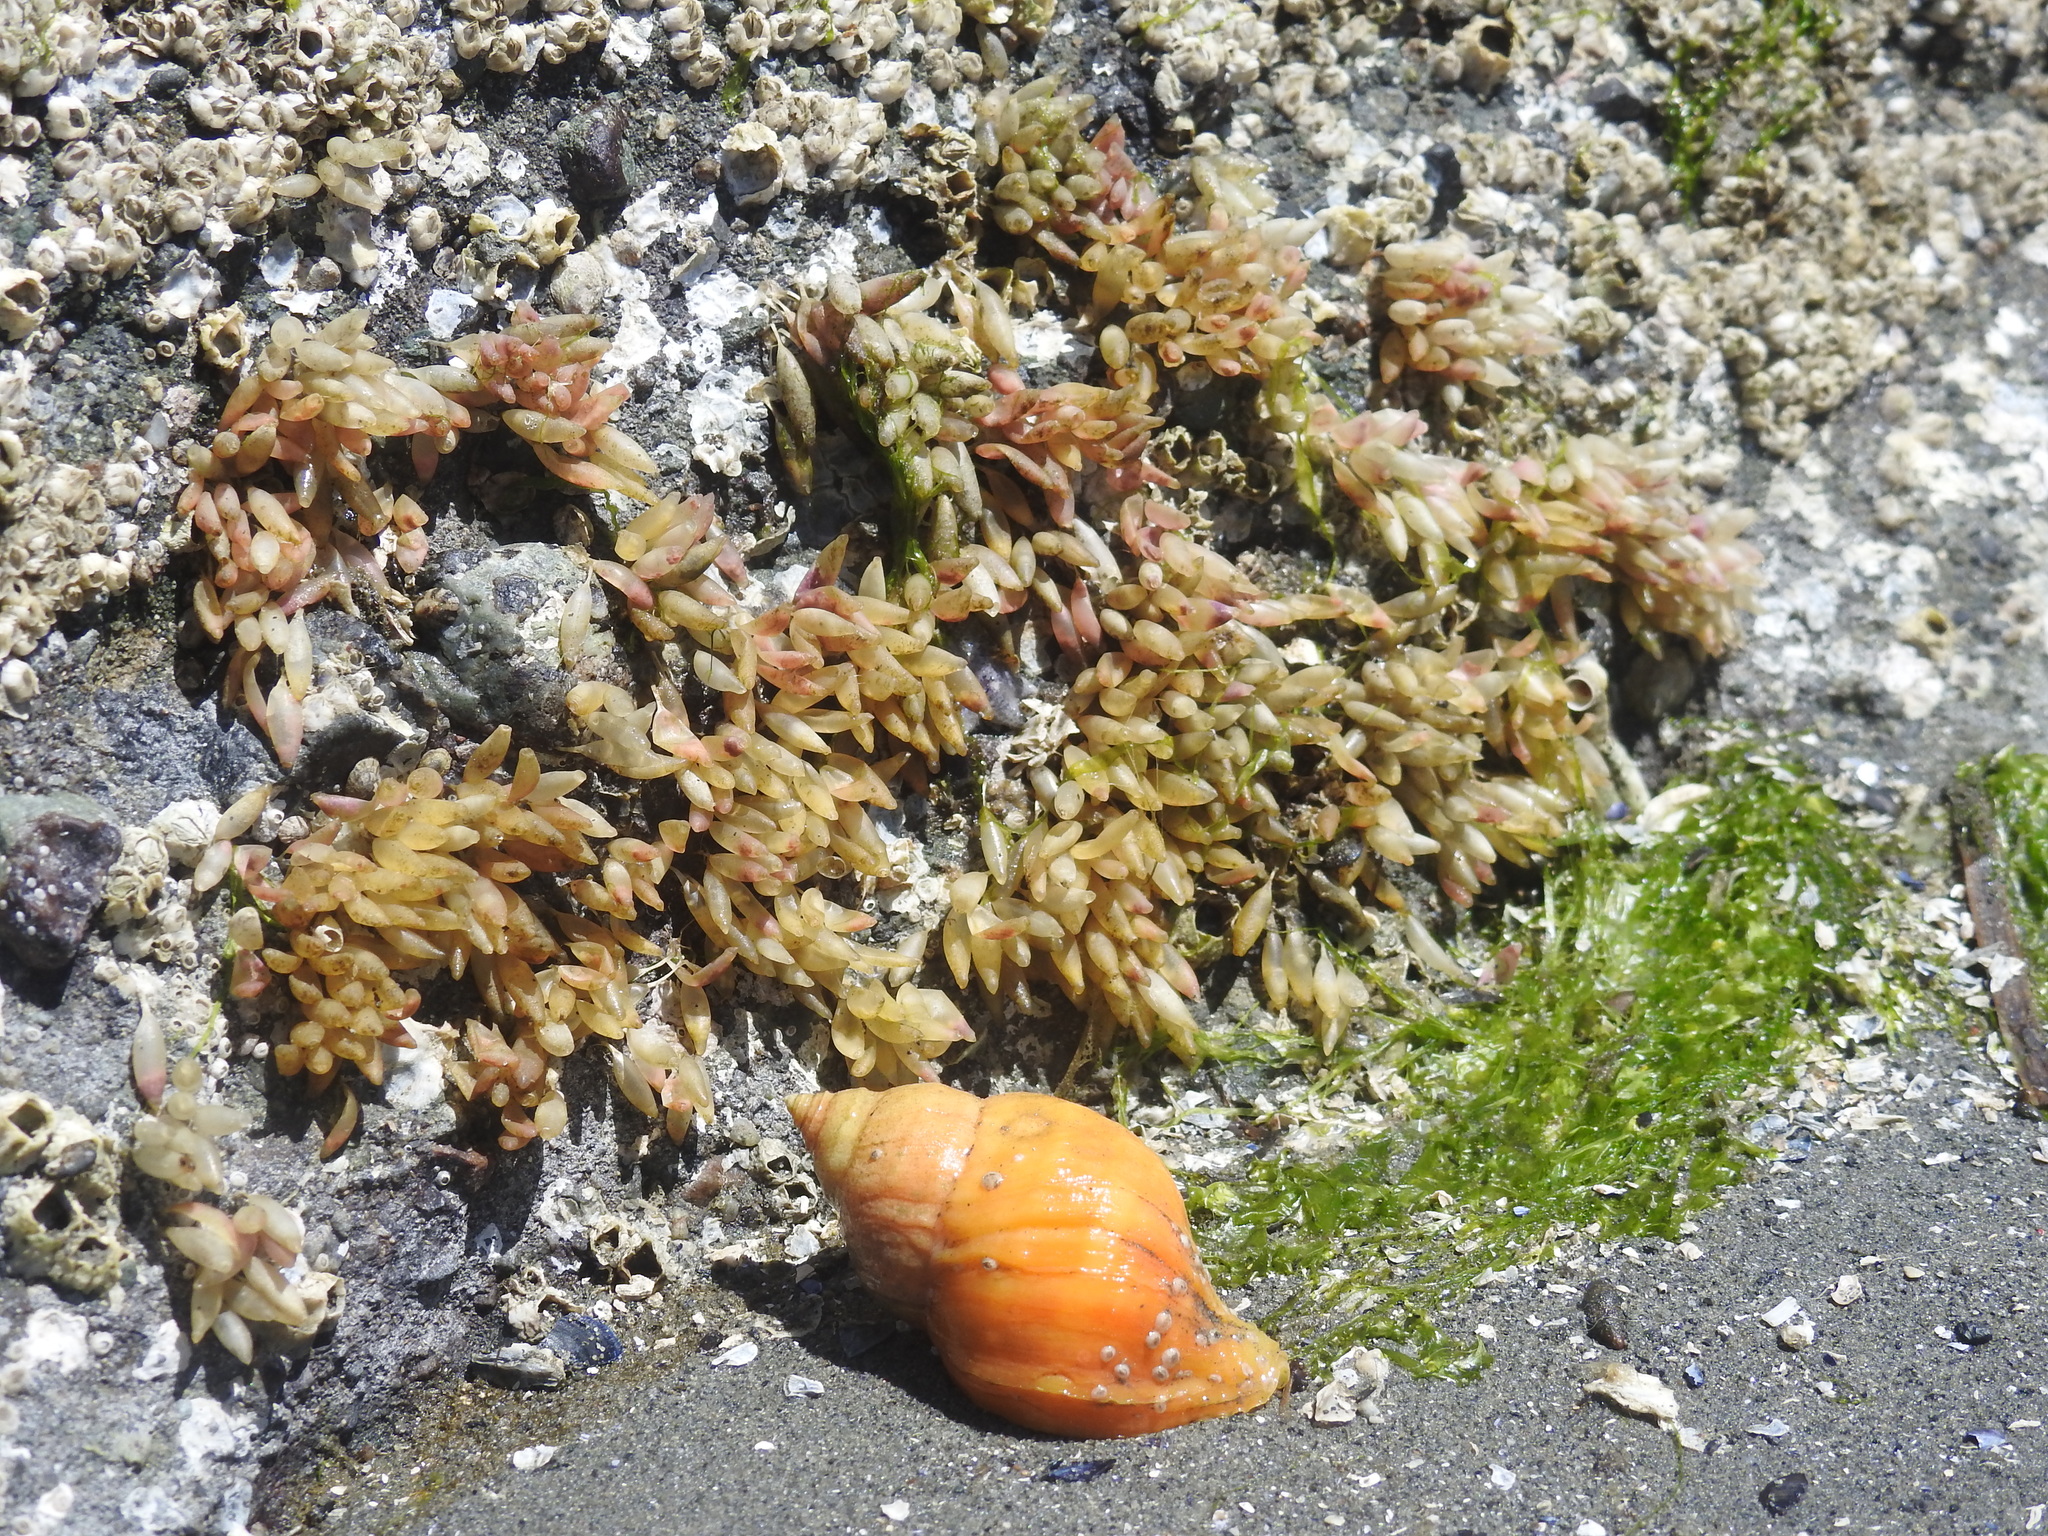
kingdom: Animalia
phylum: Mollusca
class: Gastropoda
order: Neogastropoda
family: Muricidae
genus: Nucella
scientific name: Nucella lamellosa
